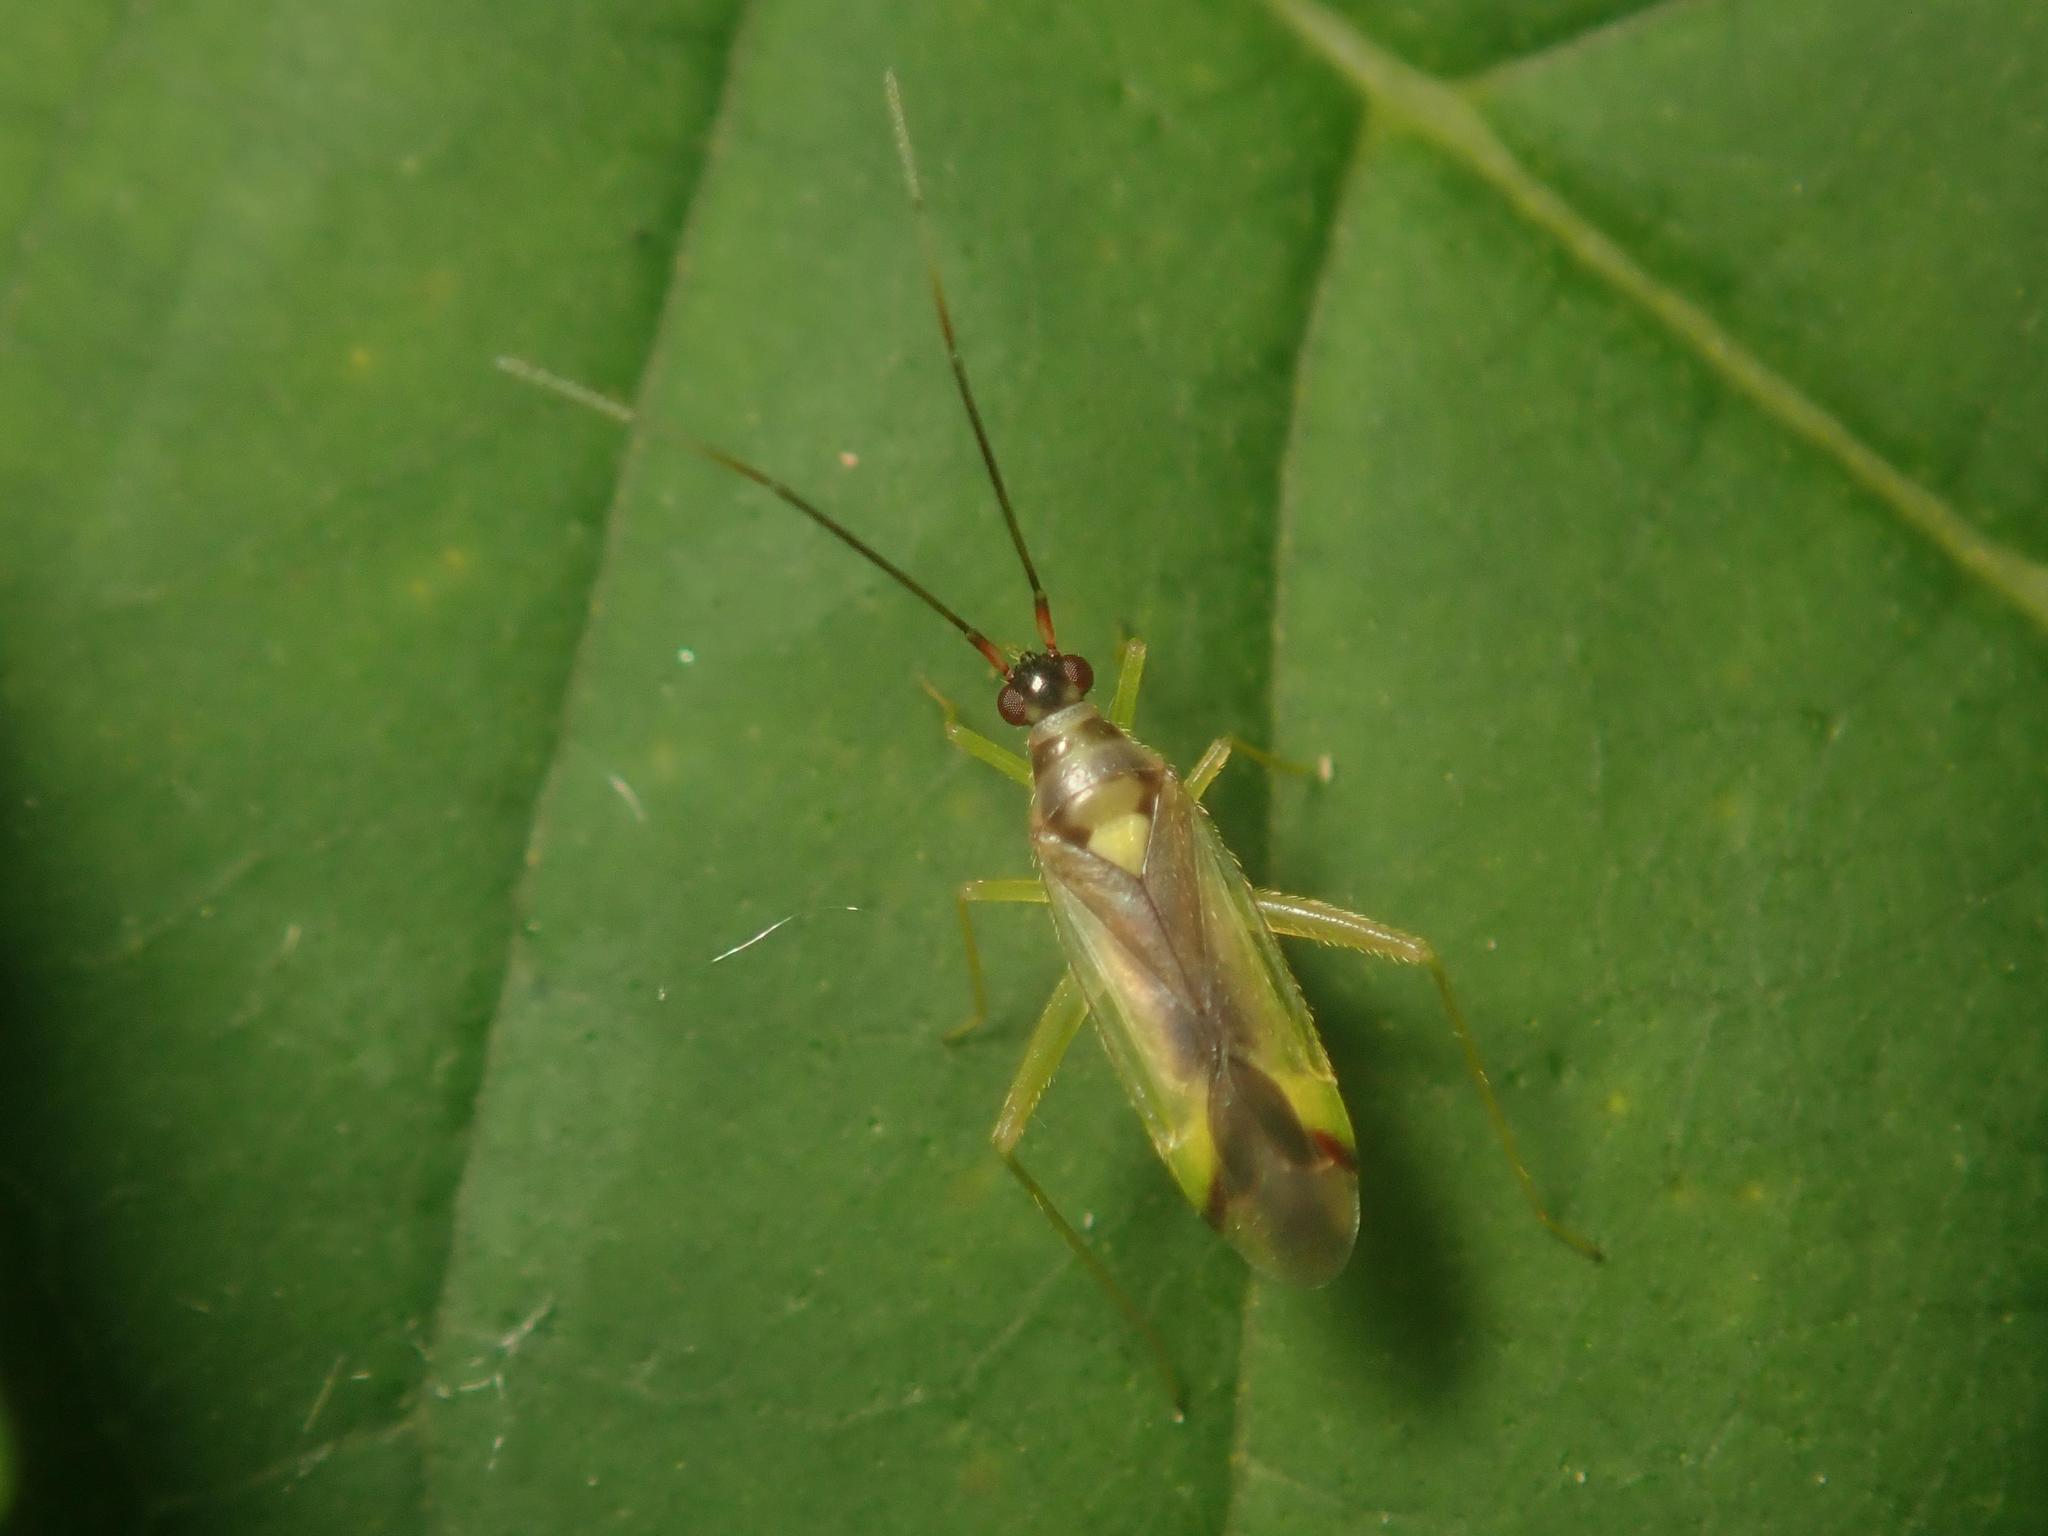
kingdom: Animalia
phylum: Arthropoda
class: Insecta
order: Hemiptera
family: Miridae
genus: Campyloneura
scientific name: Campyloneura virgula
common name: Predatory bug
